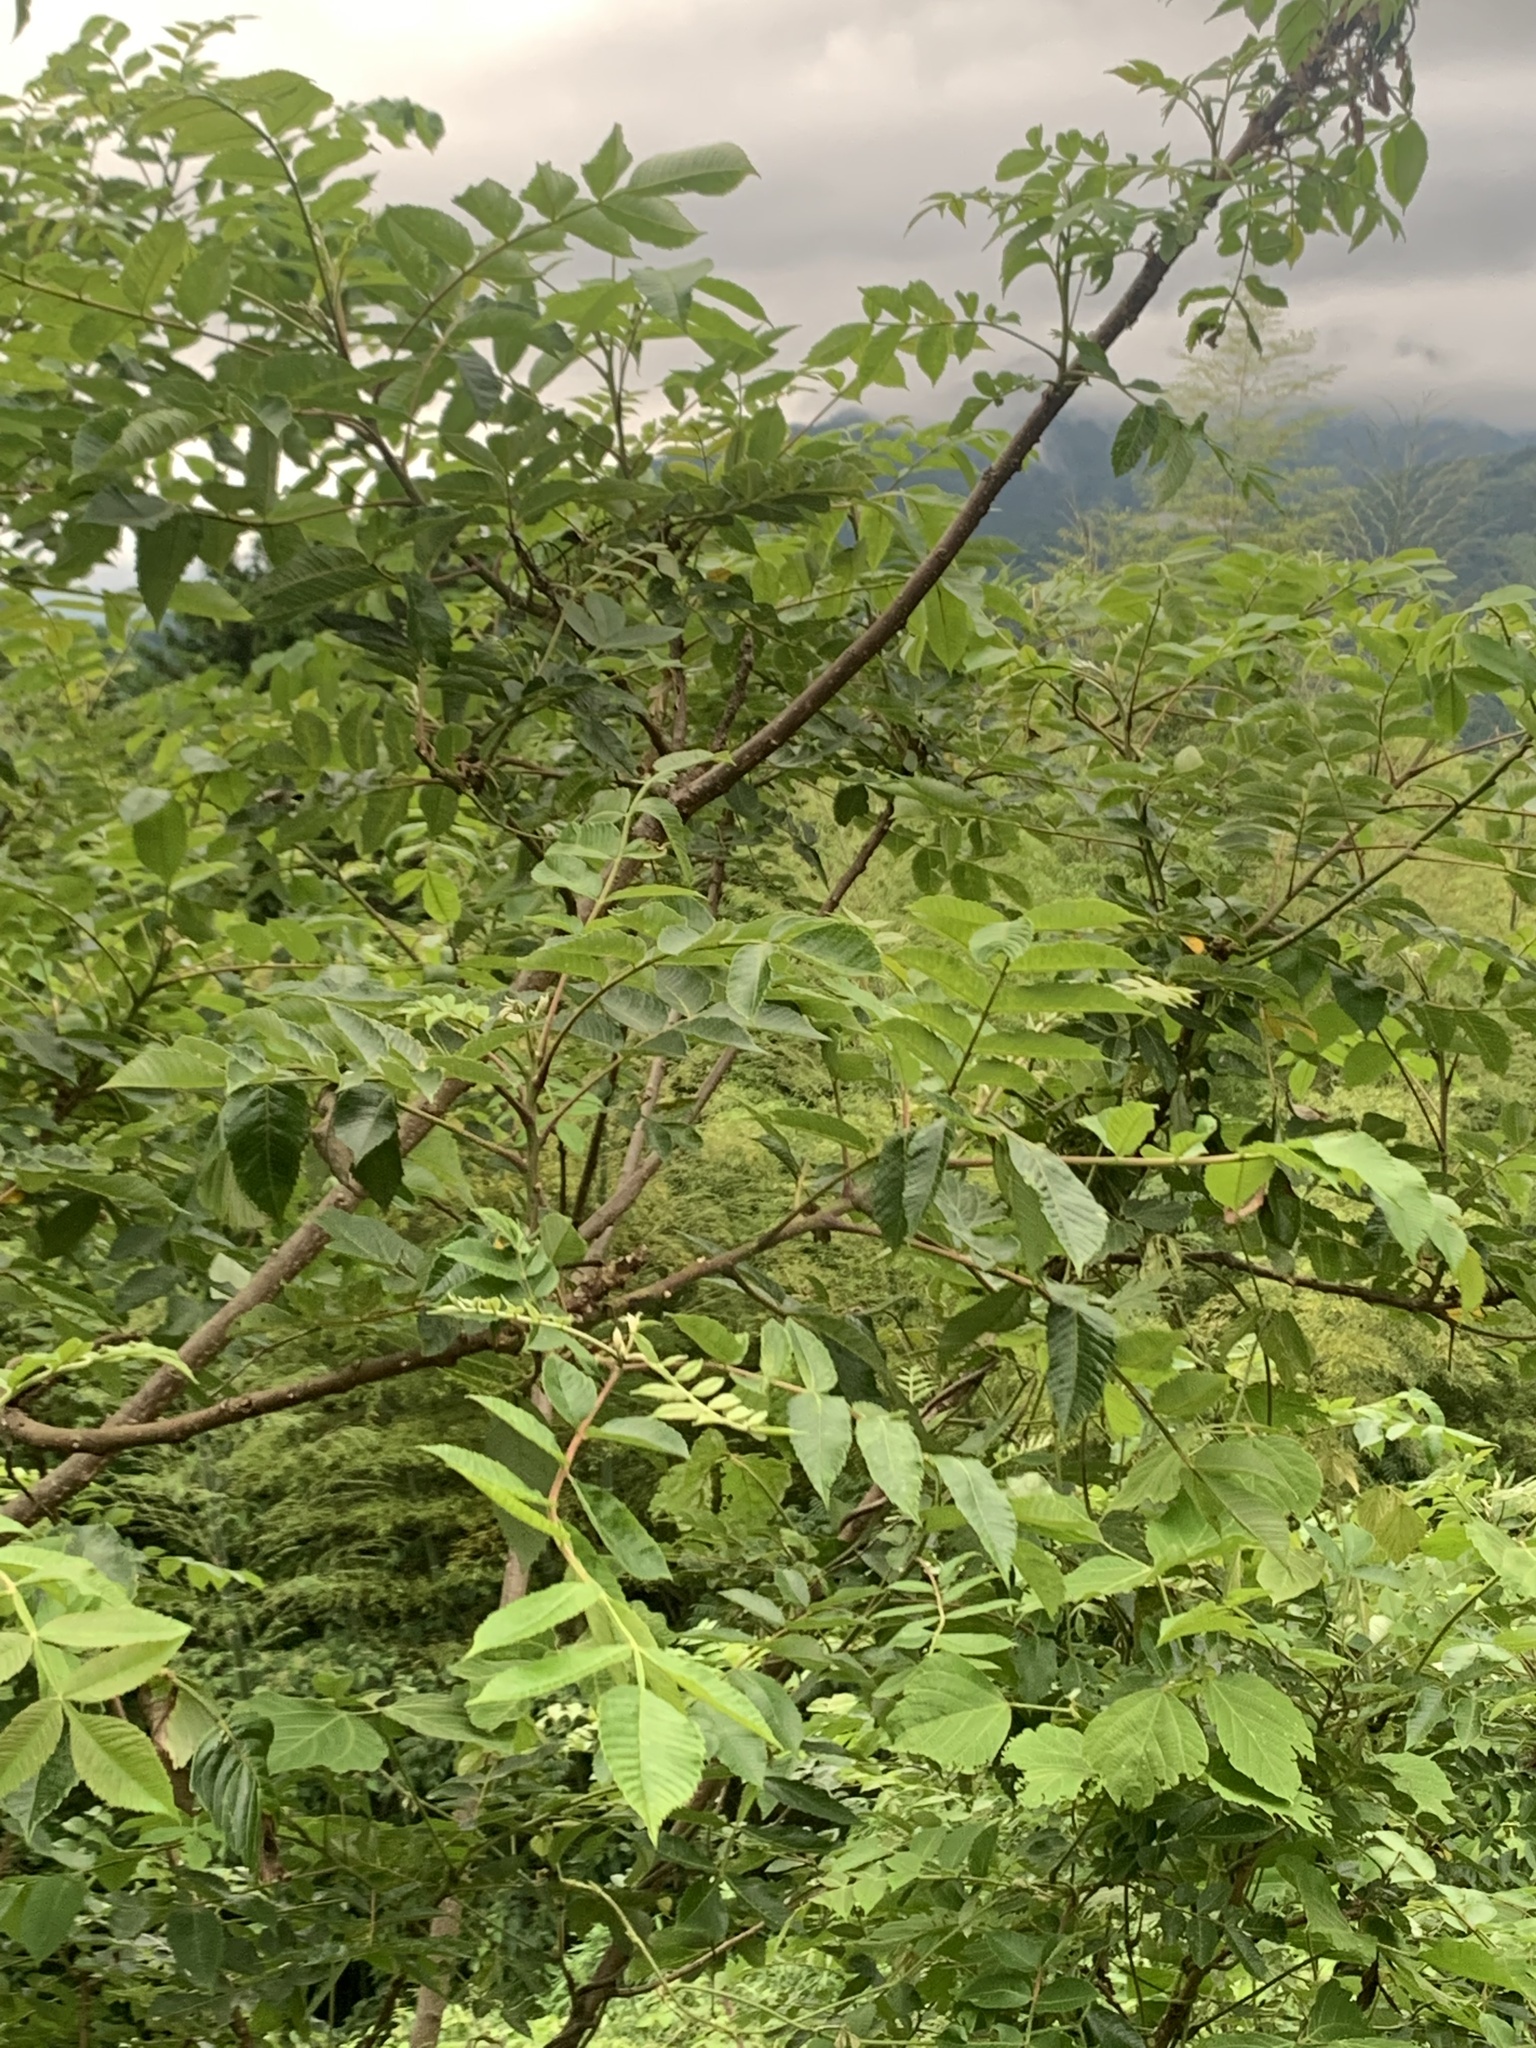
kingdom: Plantae
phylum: Tracheophyta
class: Magnoliopsida
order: Sapindales
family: Anacardiaceae
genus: Rhus
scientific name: Rhus chinensis
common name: Chinese gall
